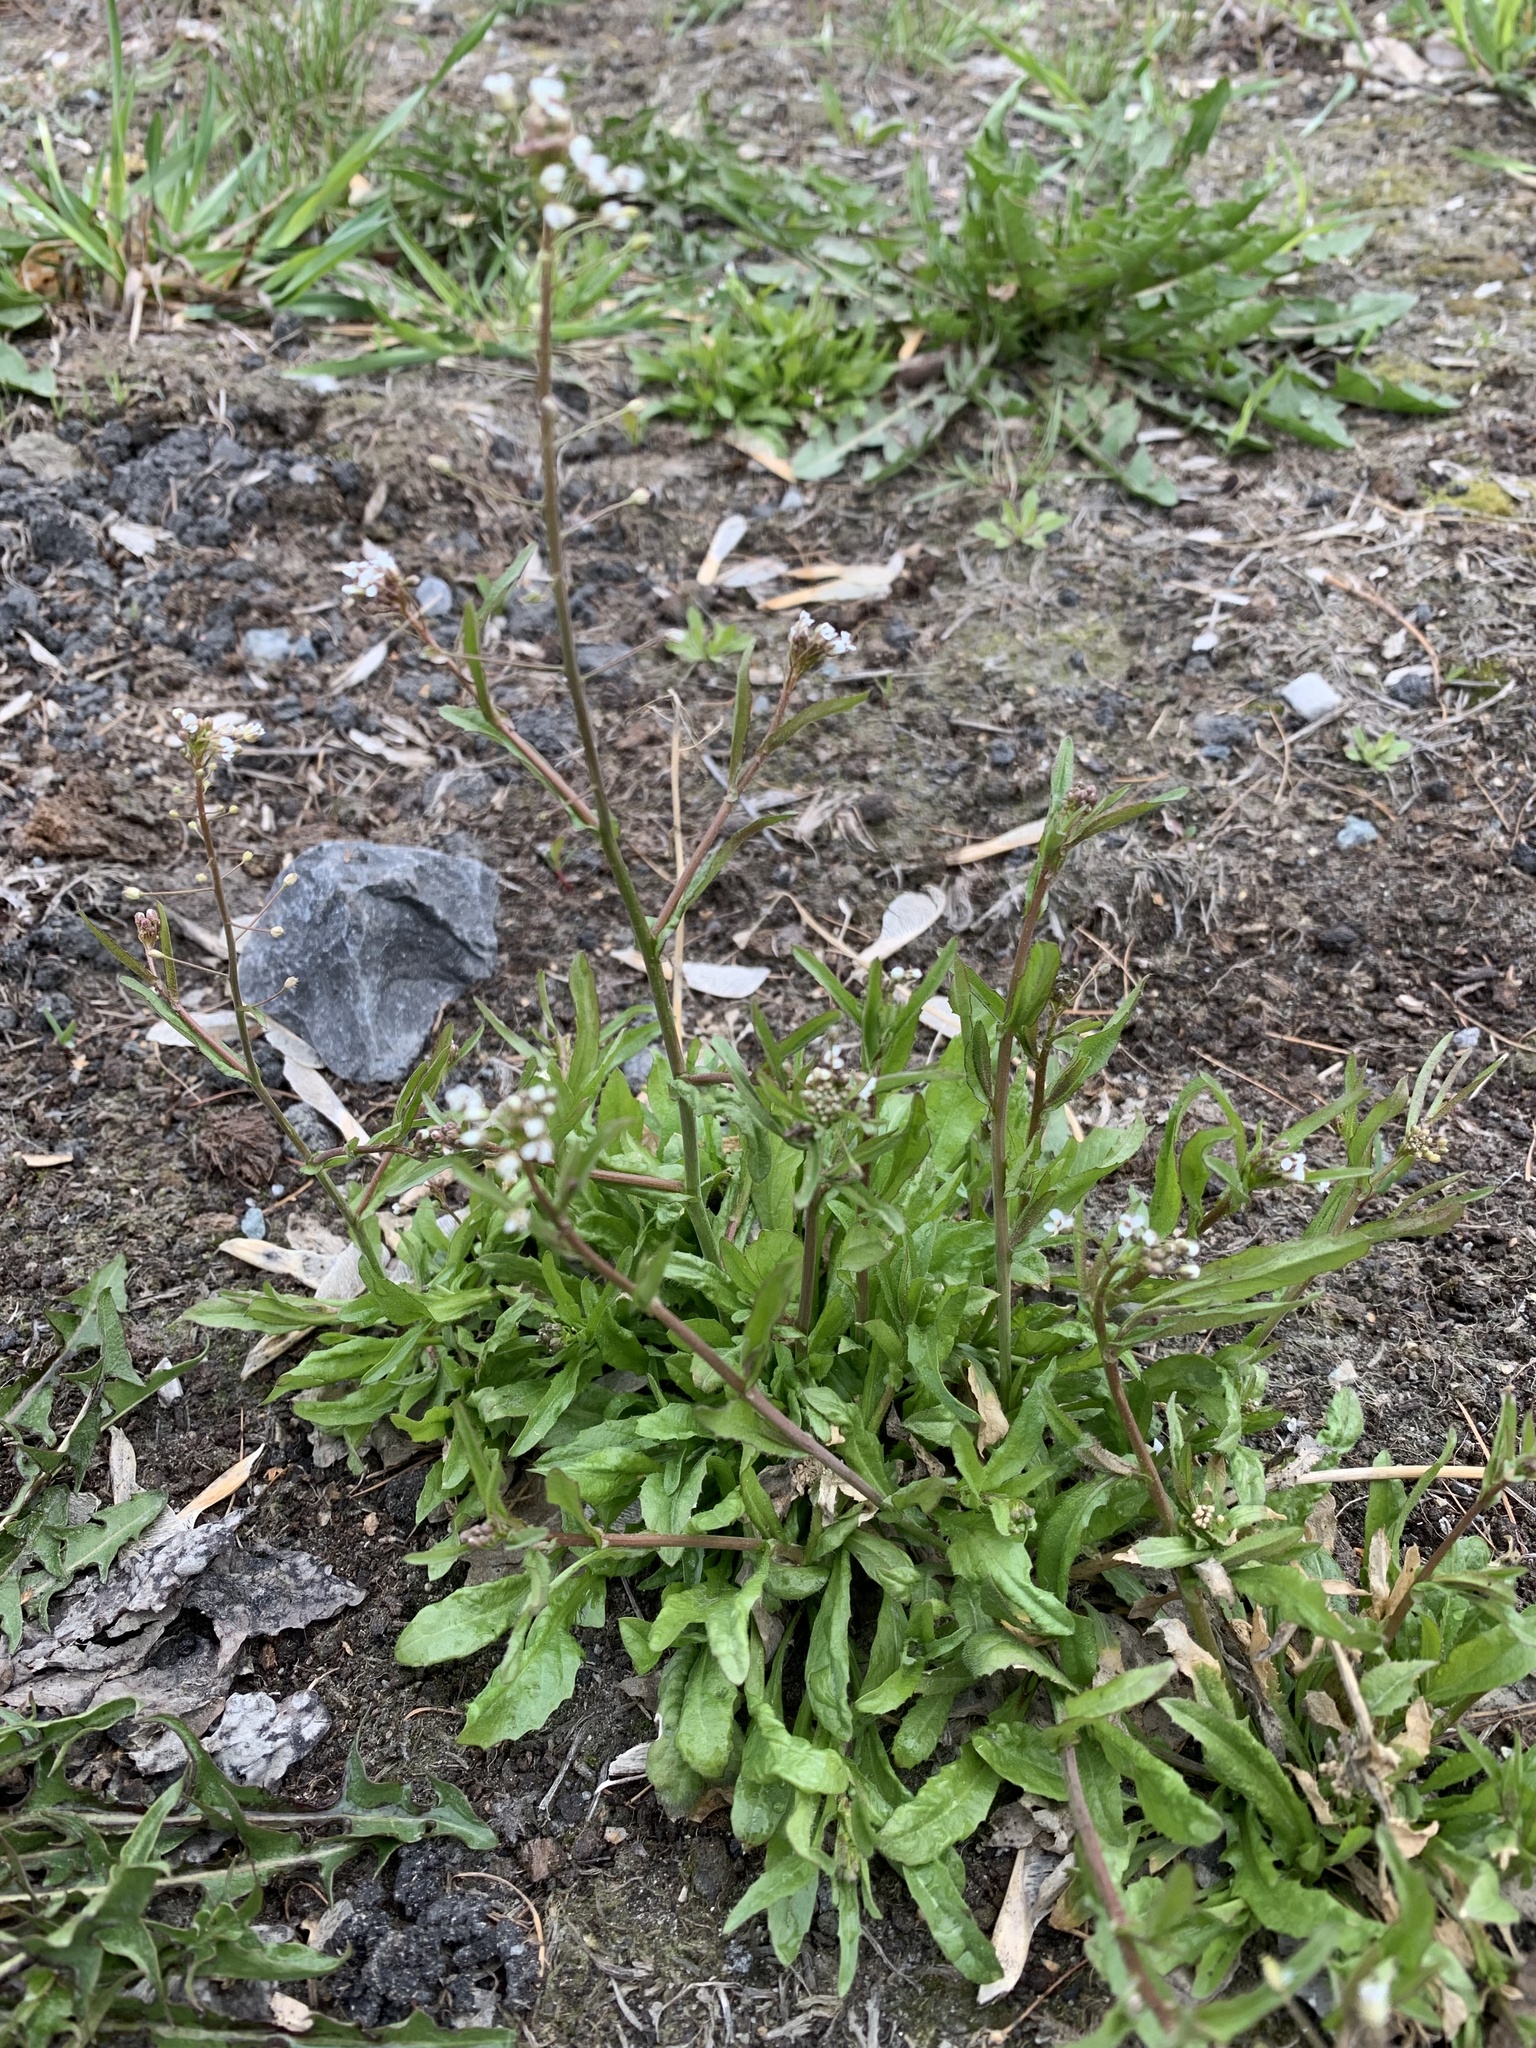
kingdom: Plantae
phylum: Tracheophyta
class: Magnoliopsida
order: Brassicales
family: Brassicaceae
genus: Capsella
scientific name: Capsella bursa-pastoris
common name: Shepherd's purse
